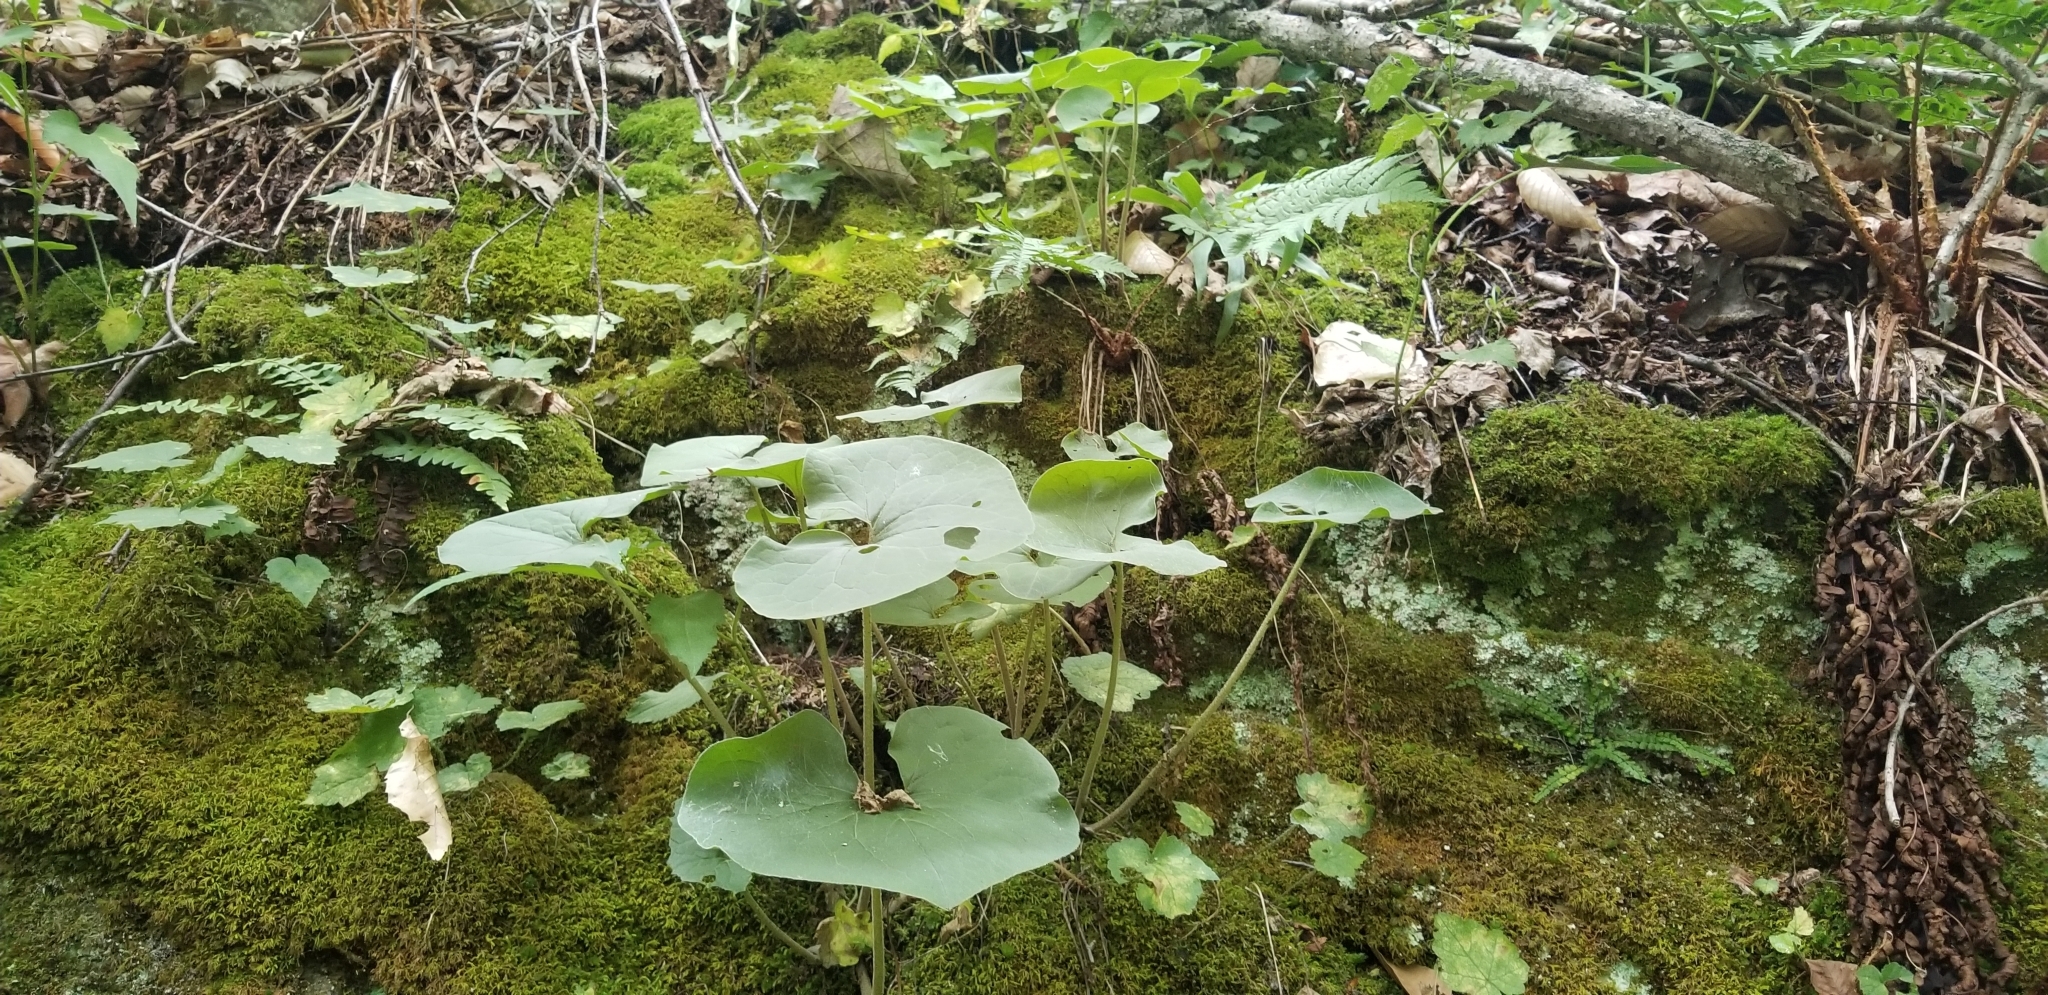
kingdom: Plantae
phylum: Tracheophyta
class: Magnoliopsida
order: Piperales
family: Aristolochiaceae
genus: Asarum
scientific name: Asarum canadense
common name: Wild ginger
